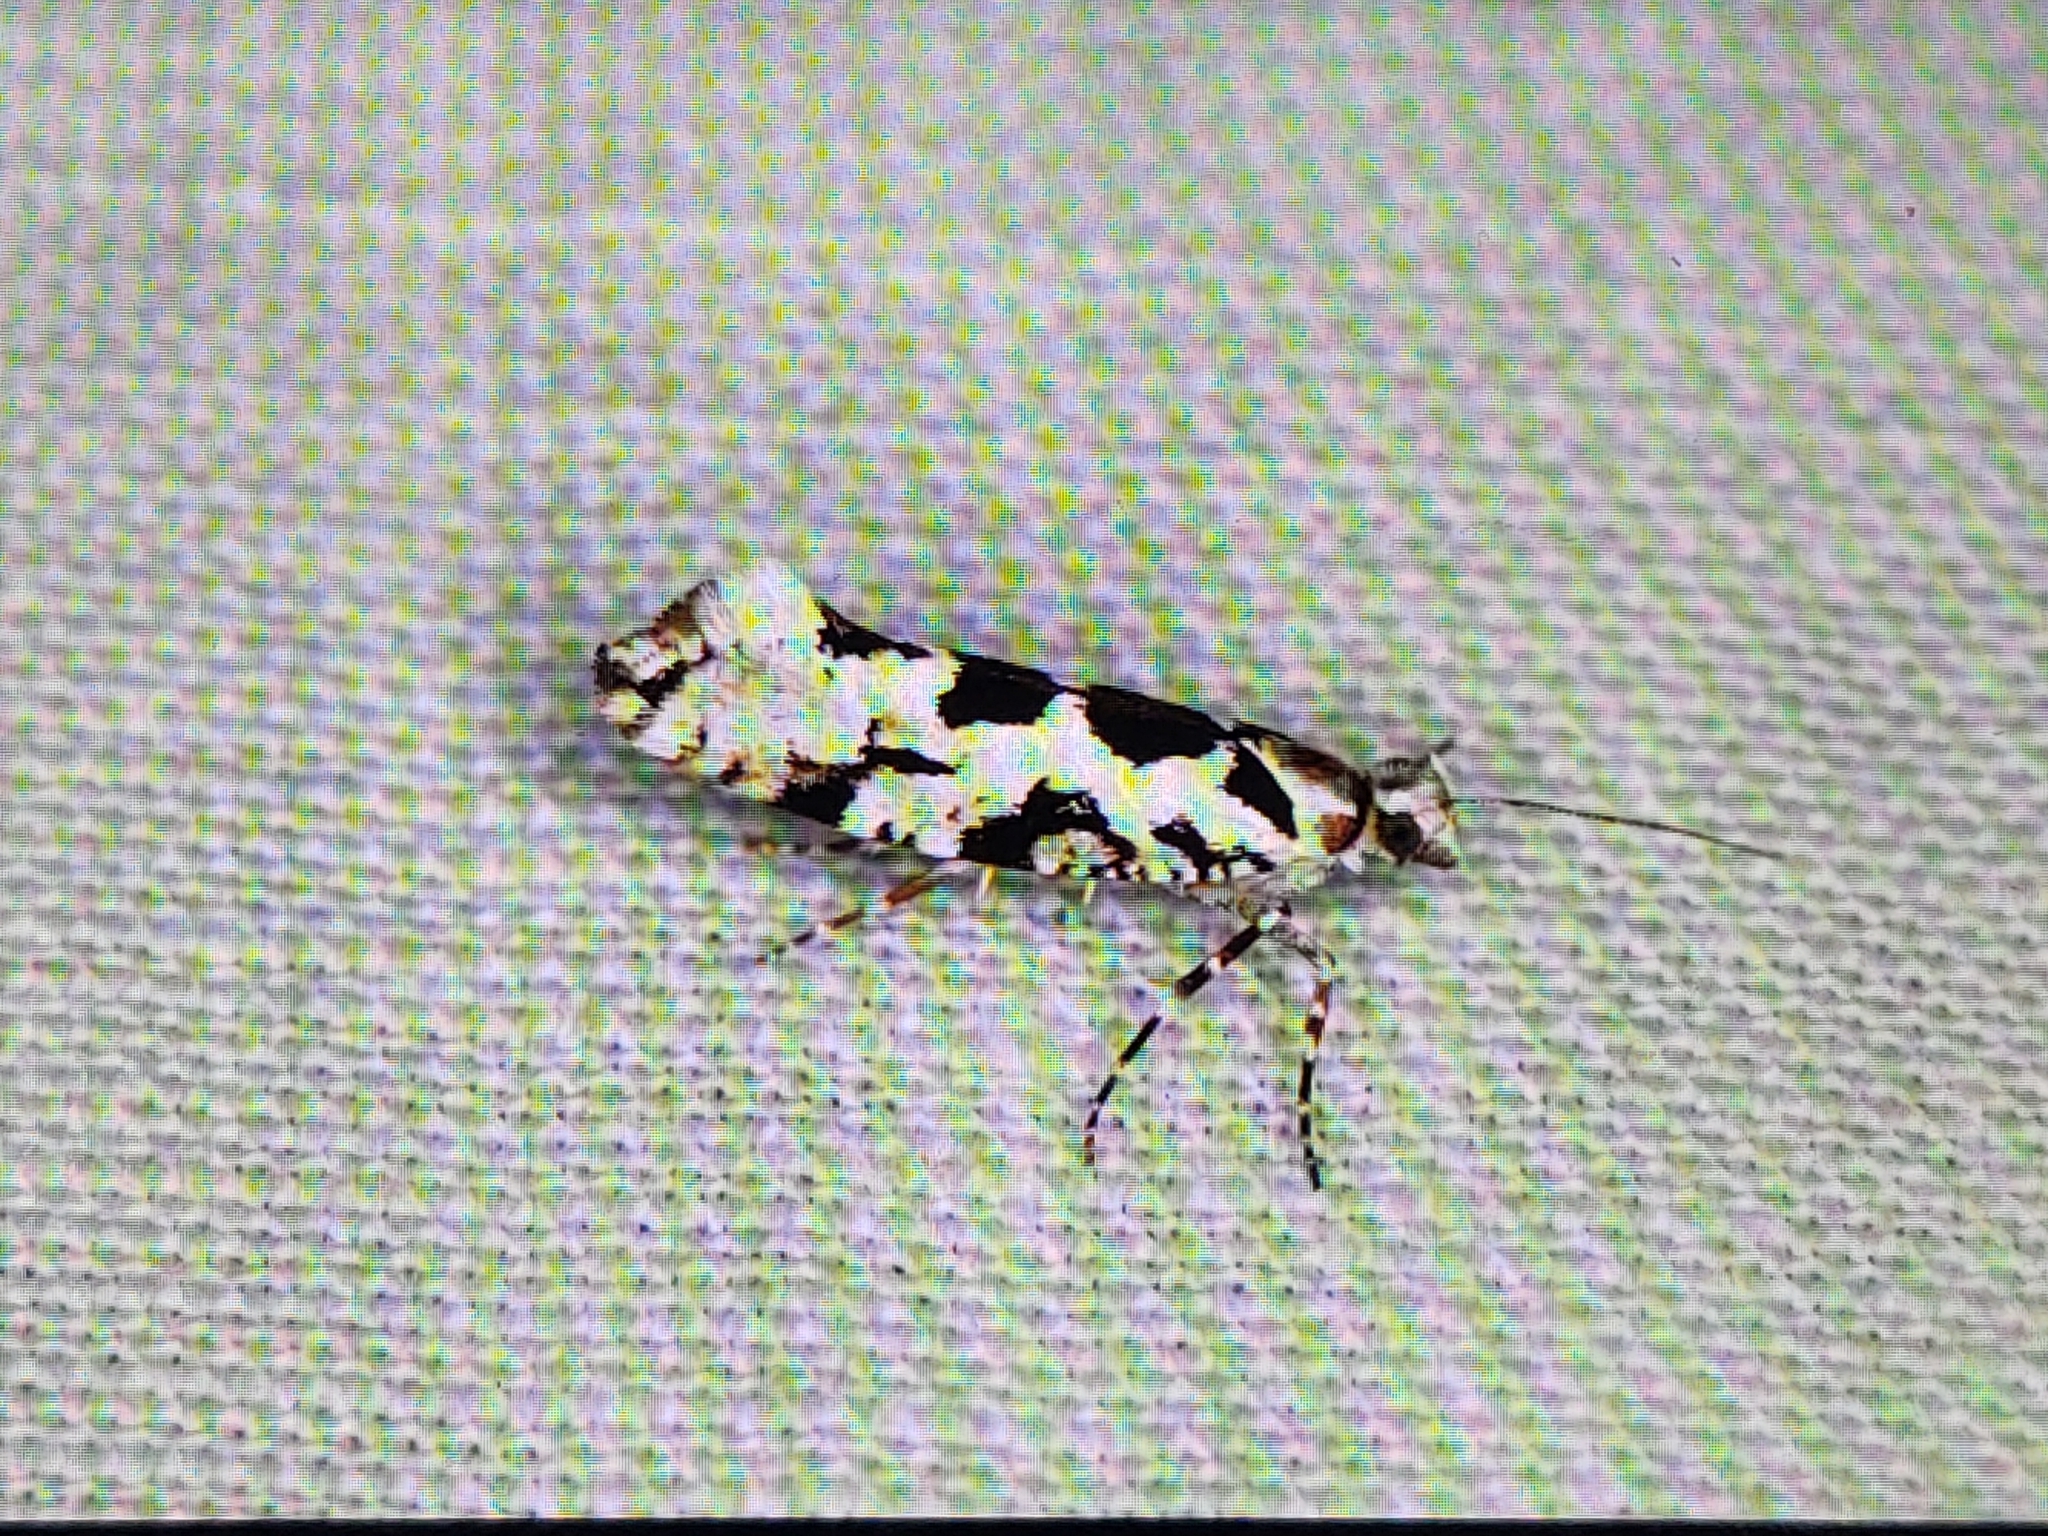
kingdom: Animalia
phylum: Arthropoda
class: Insecta
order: Lepidoptera
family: Plutellidae
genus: Ypsolophus
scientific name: Ypsolophus sequella
